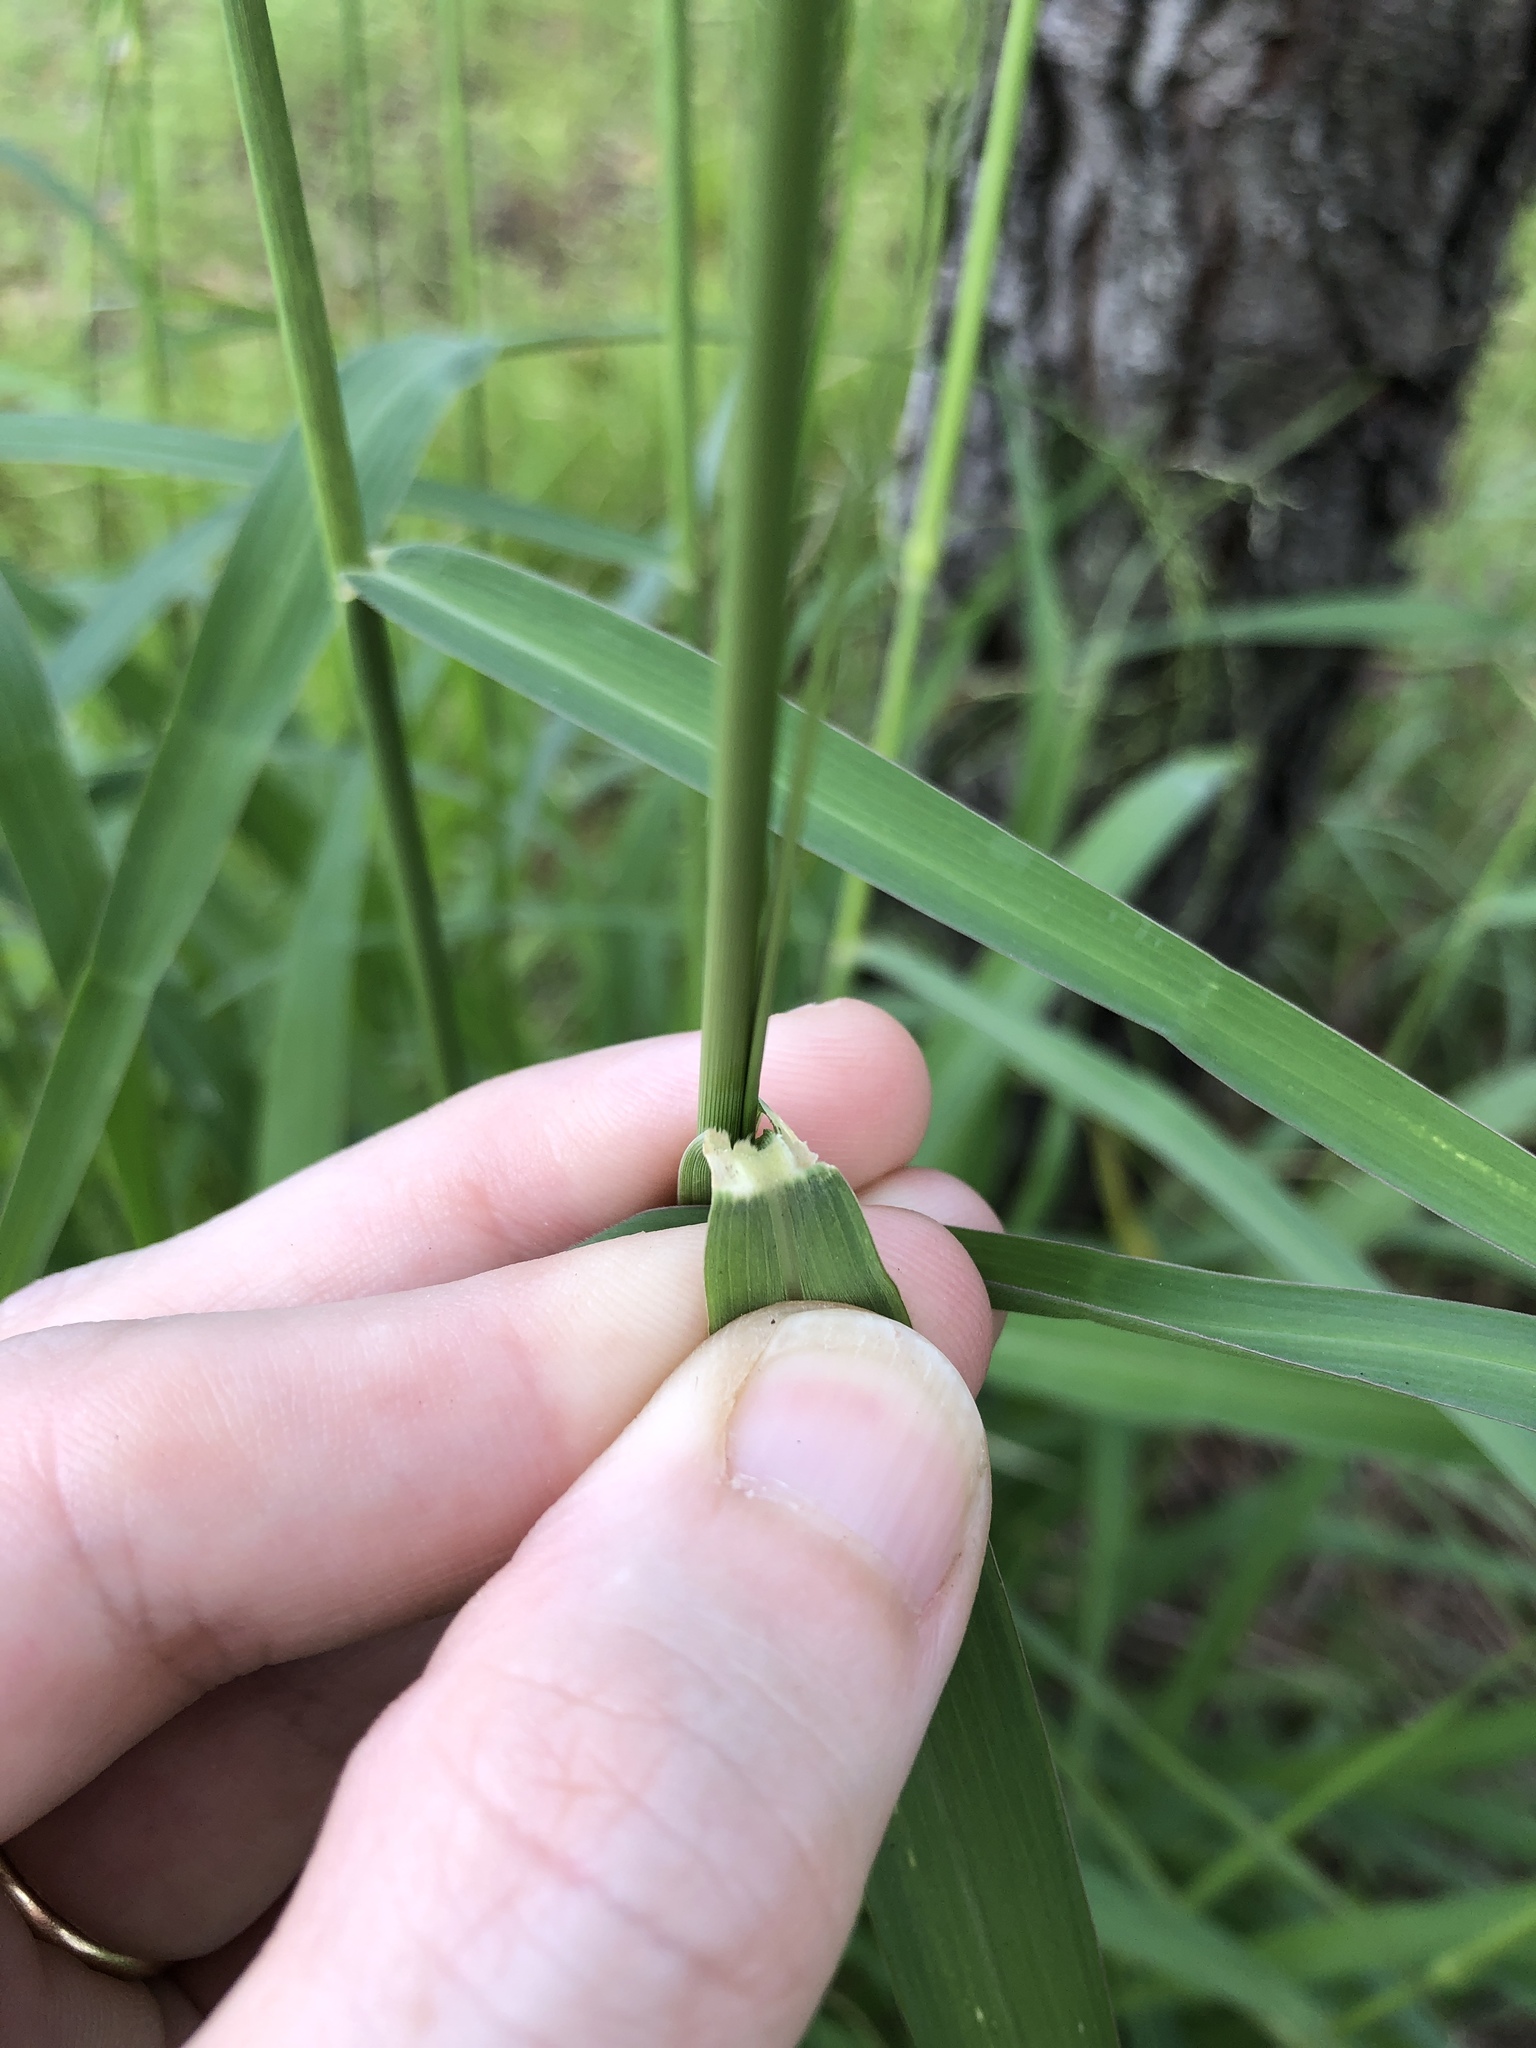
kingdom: Plantae
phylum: Tracheophyta
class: Liliopsida
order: Poales
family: Poaceae
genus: Megathyrsus
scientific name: Megathyrsus maximus
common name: Guineagrass
